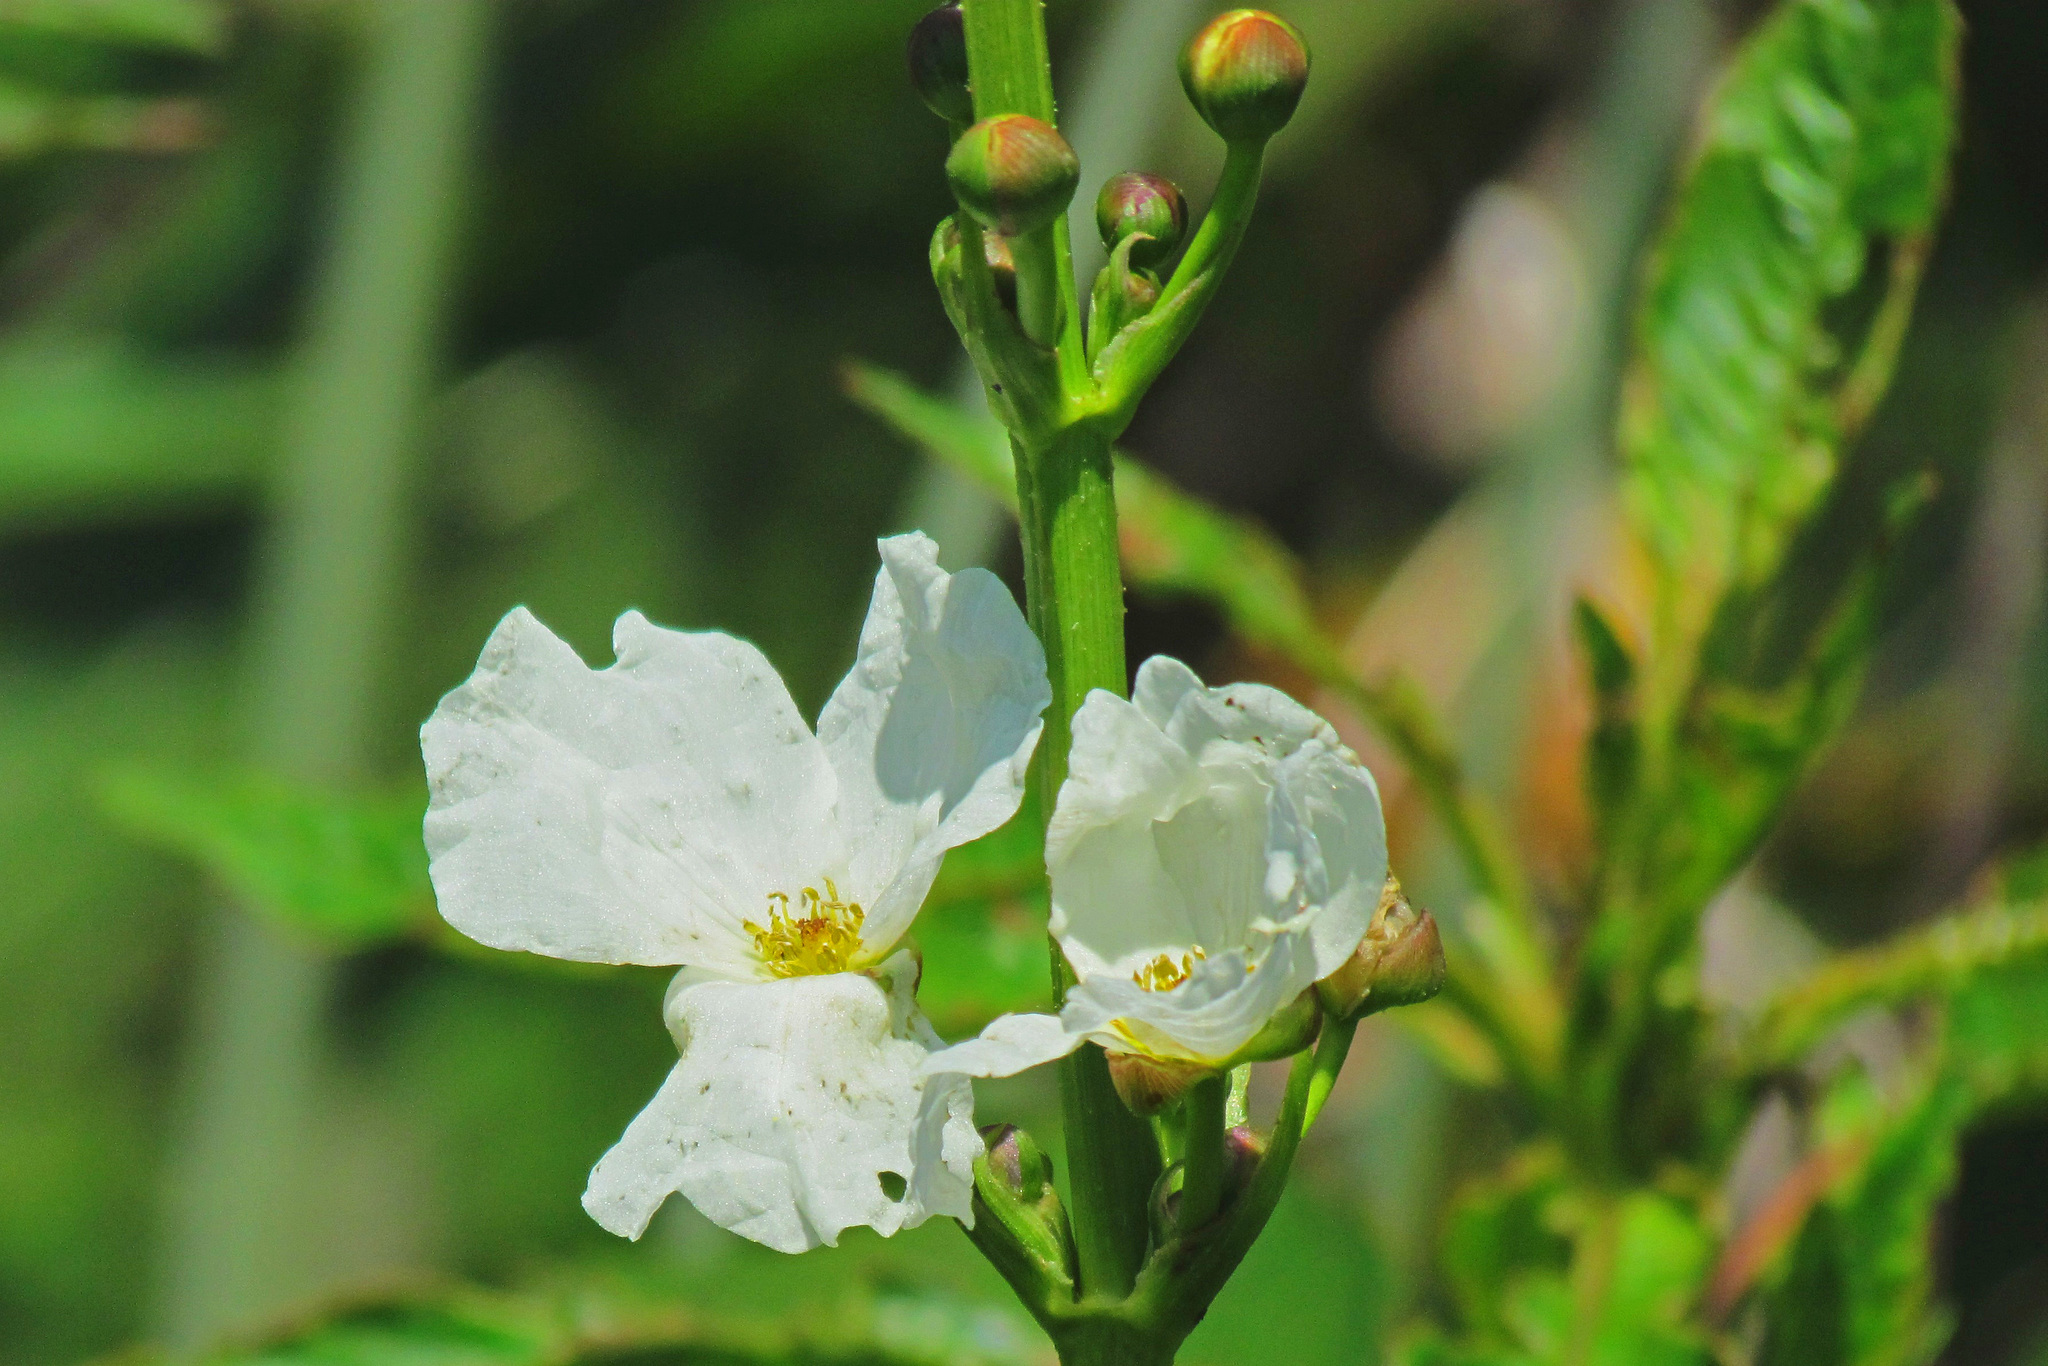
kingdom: Plantae
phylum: Tracheophyta
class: Liliopsida
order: Alismatales
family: Alismataceae
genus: Aquarius
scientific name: Aquarius grandiflorus
